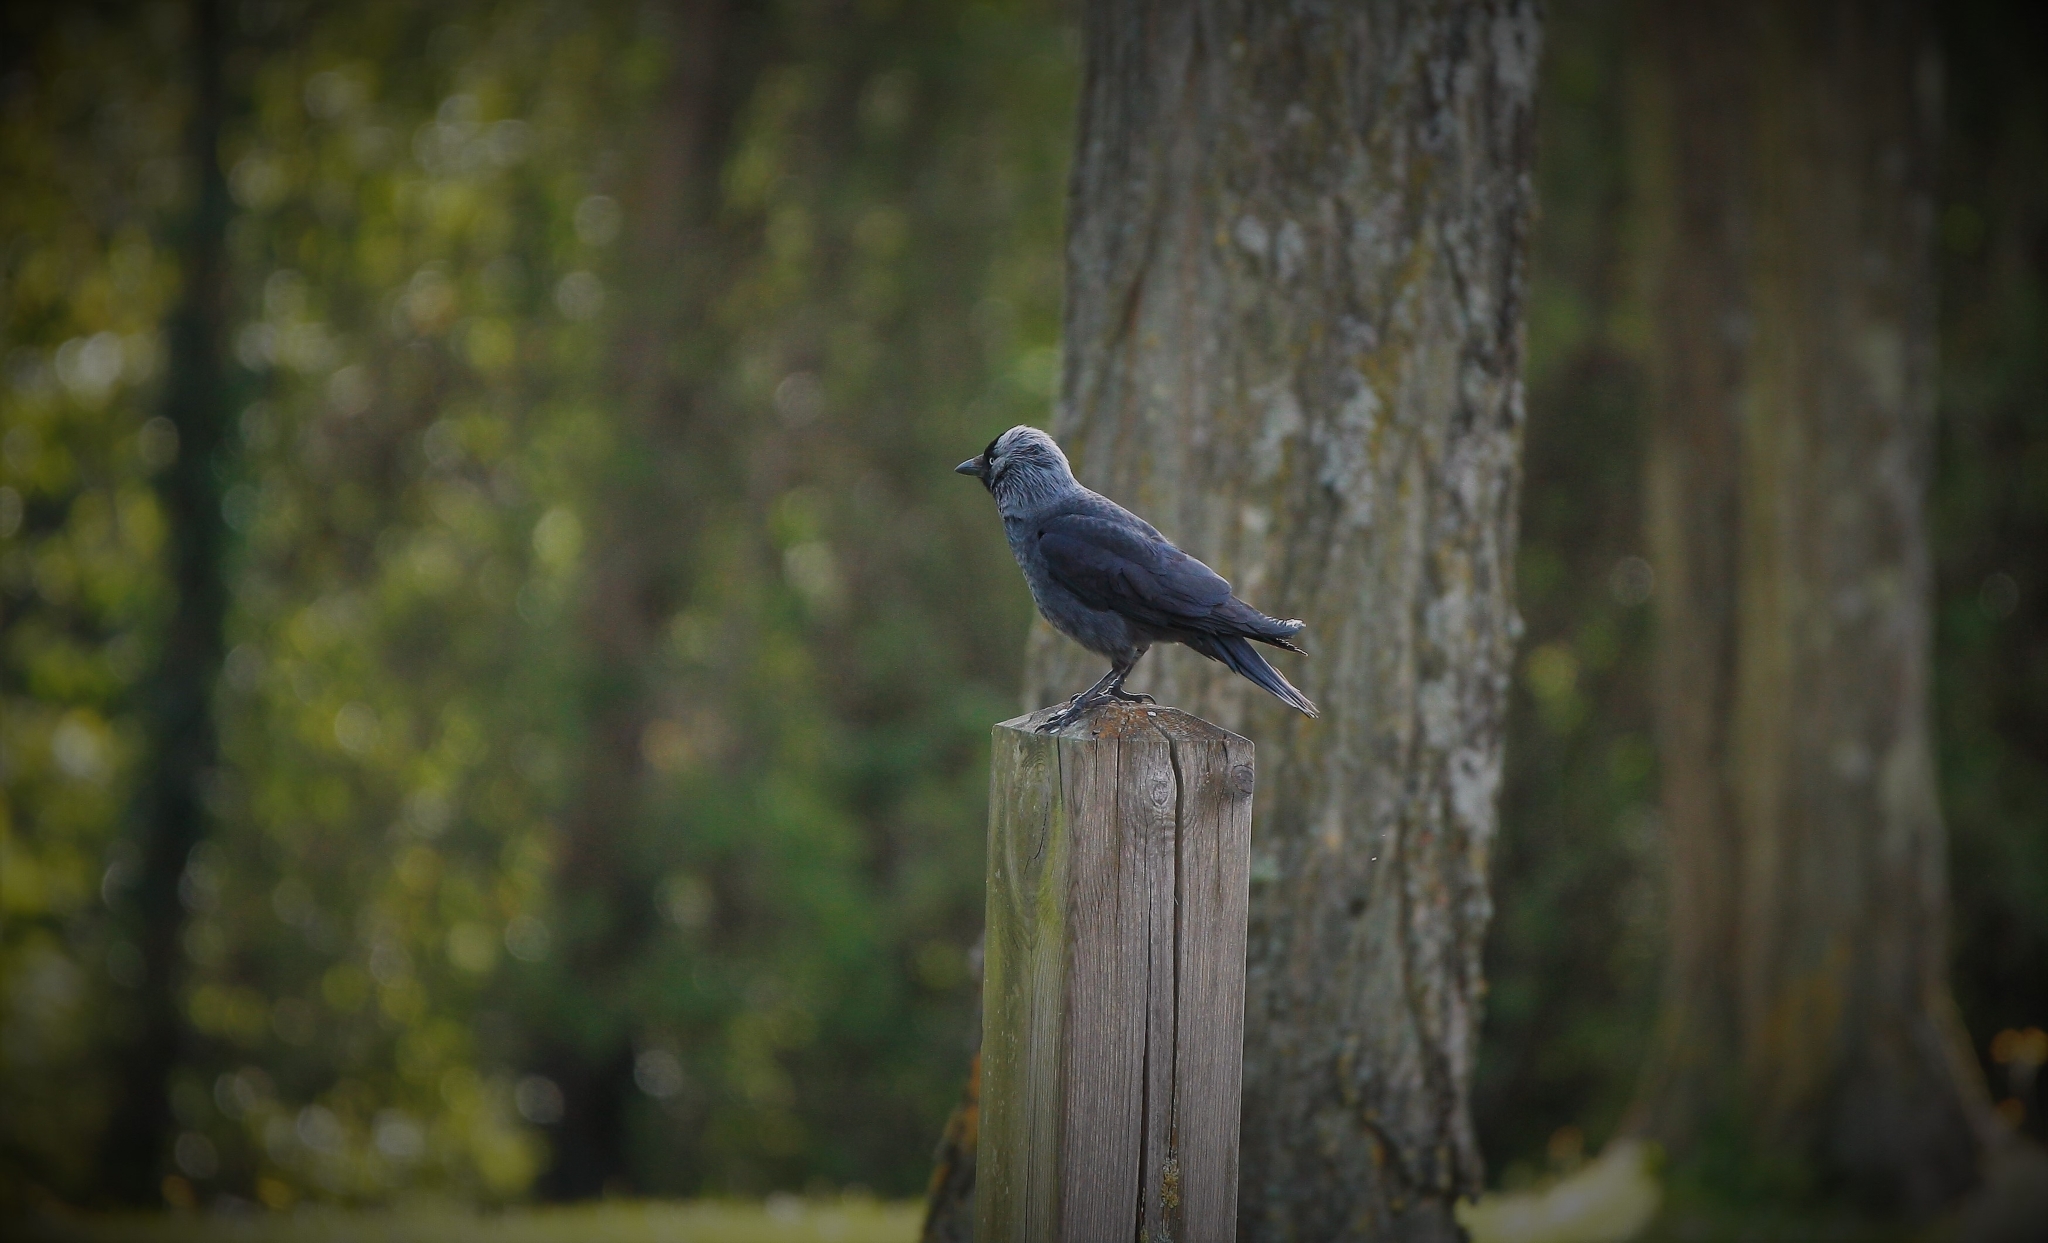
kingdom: Animalia
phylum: Chordata
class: Aves
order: Passeriformes
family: Corvidae
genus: Coloeus
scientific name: Coloeus monedula
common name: Western jackdaw
